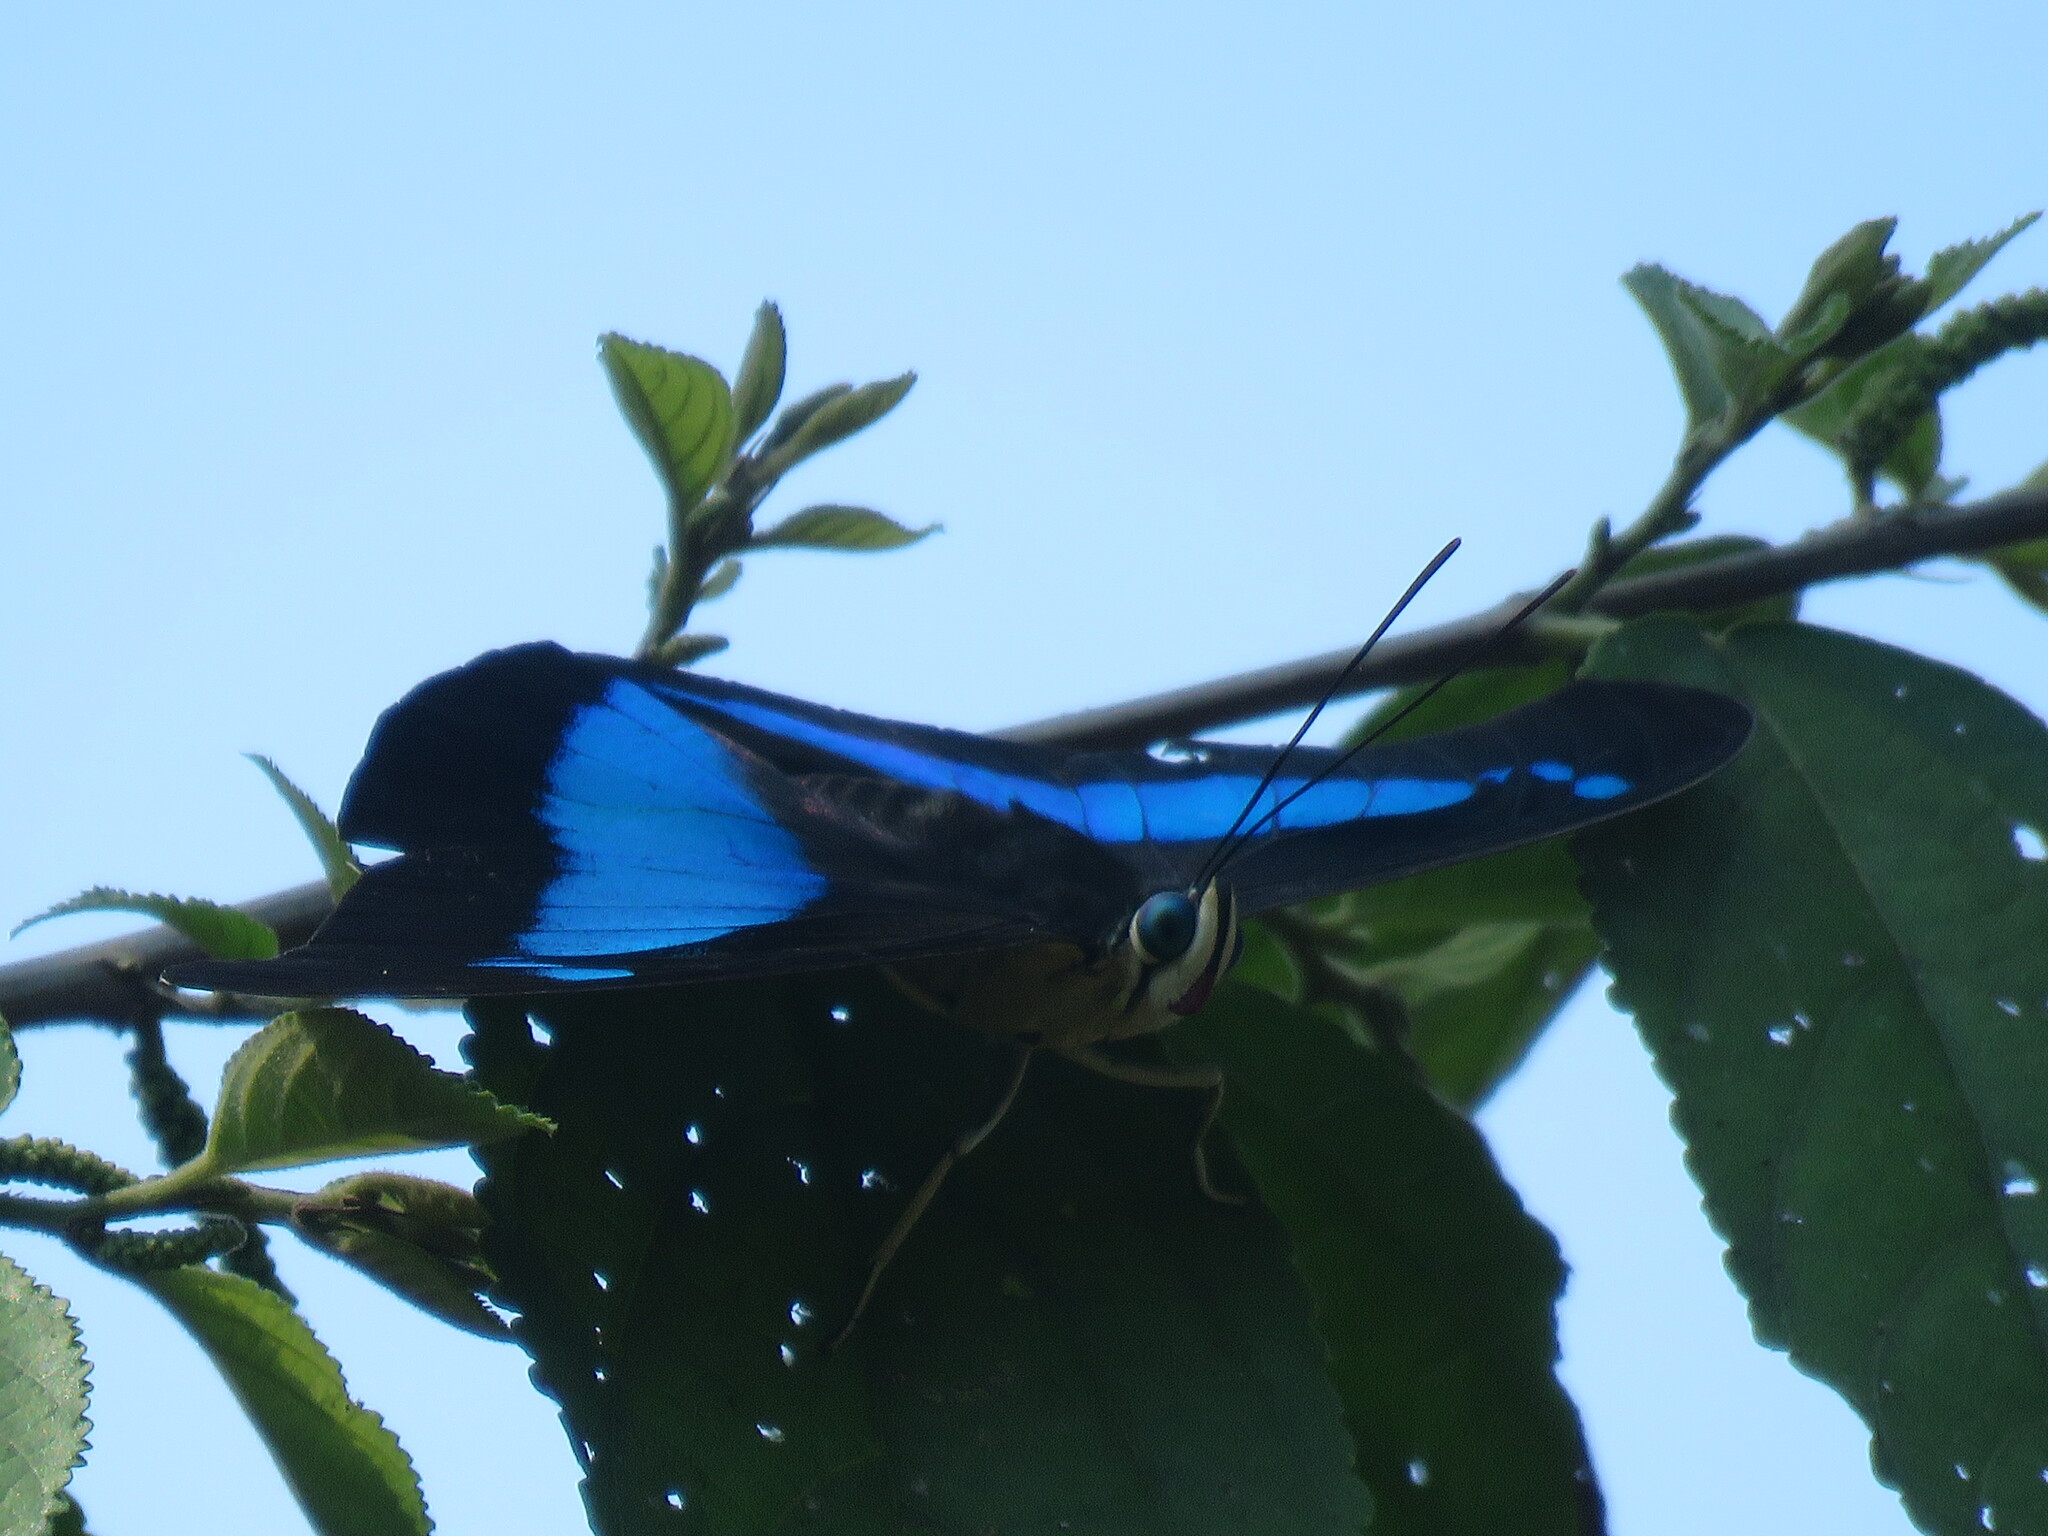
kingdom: Animalia
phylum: Arthropoda
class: Insecta
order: Lepidoptera
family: Nymphalidae
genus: Prepona
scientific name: Prepona demophon
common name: One-spotted prepona
